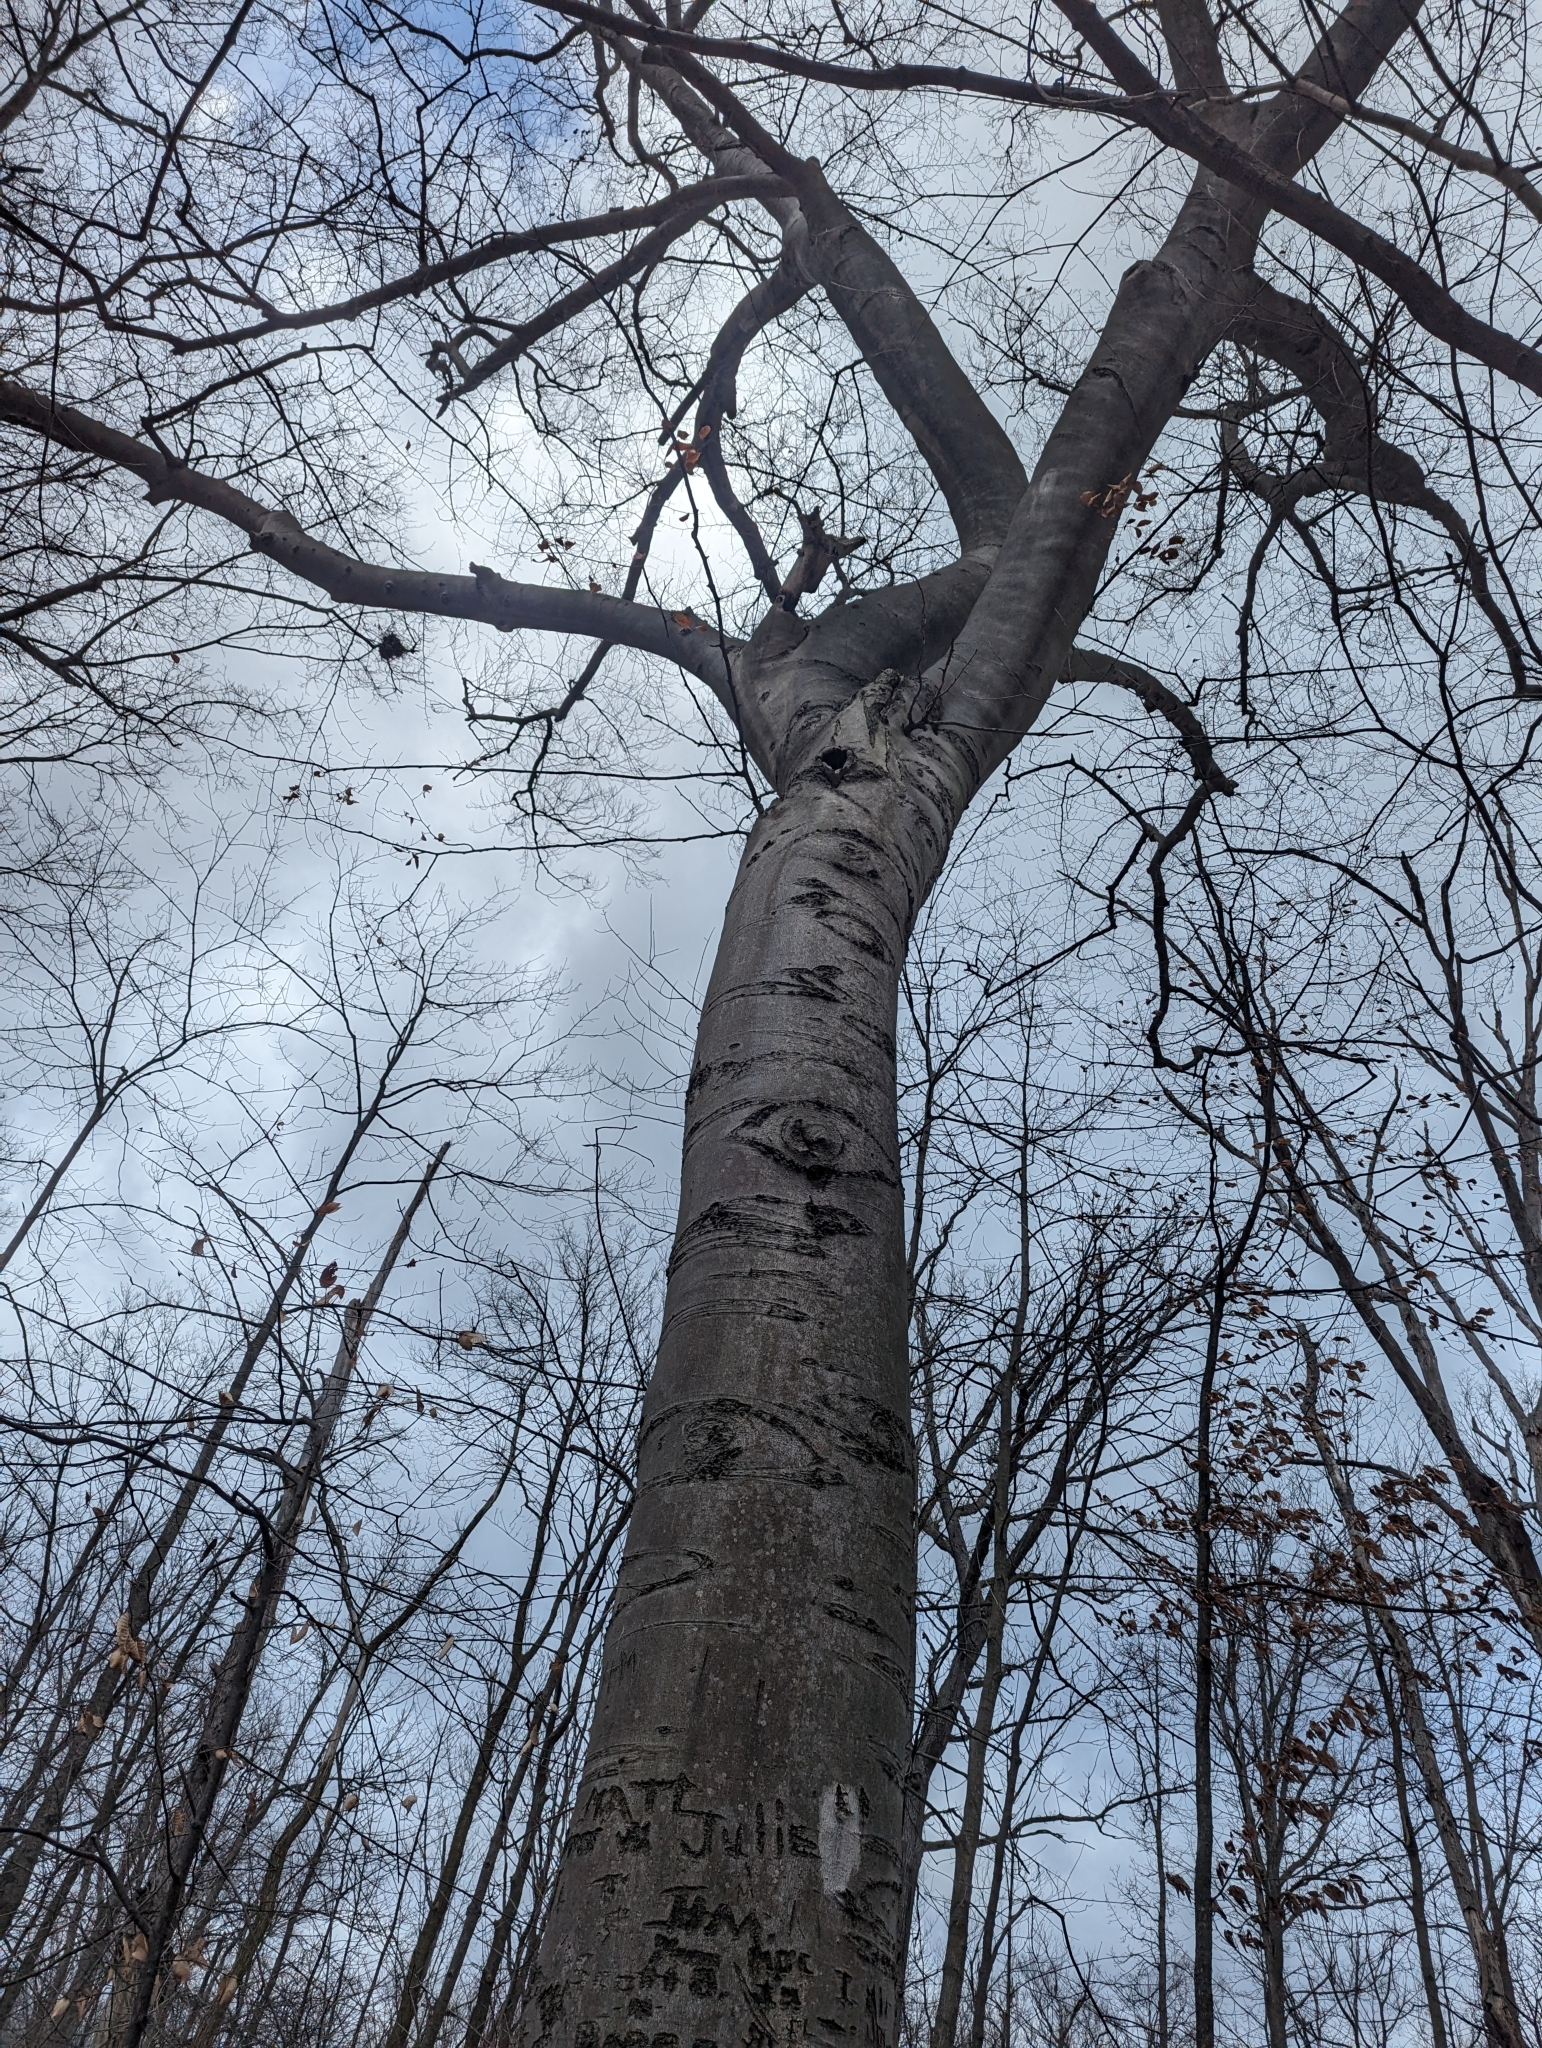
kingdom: Plantae
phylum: Tracheophyta
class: Magnoliopsida
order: Fagales
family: Fagaceae
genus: Fagus
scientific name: Fagus grandifolia
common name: American beech
